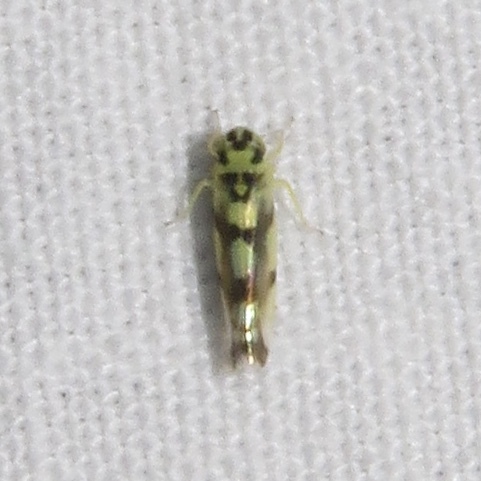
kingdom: Animalia
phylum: Arthropoda
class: Insecta
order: Hemiptera
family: Cicadellidae
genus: Eupteryx
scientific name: Eupteryx atropunctata
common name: Leafhopper
